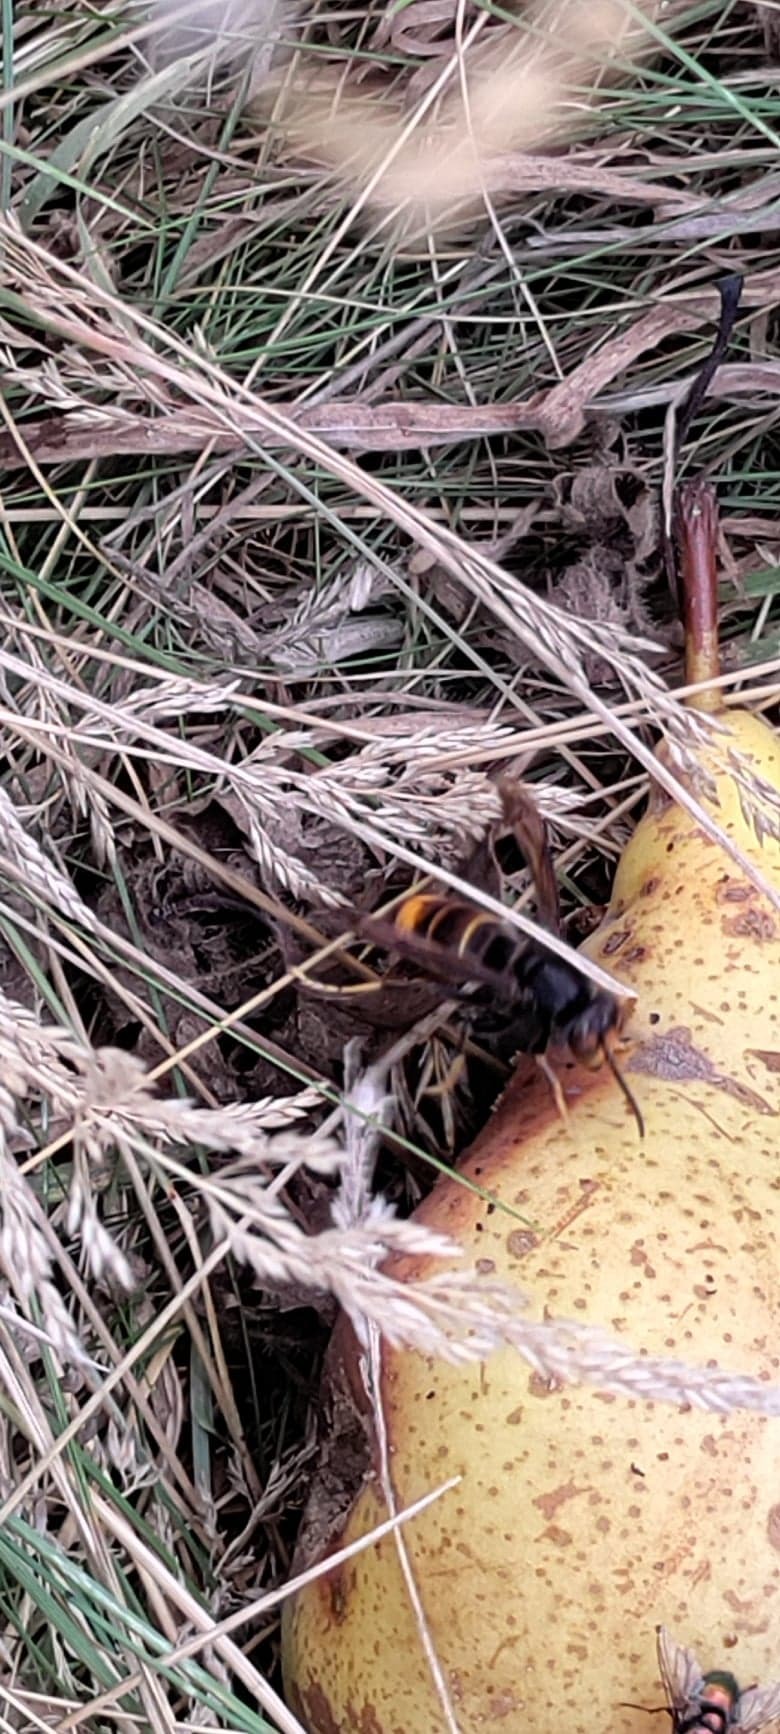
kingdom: Animalia
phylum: Arthropoda
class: Insecta
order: Hymenoptera
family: Vespidae
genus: Vespa
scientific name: Vespa velutina
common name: Asian hornet
